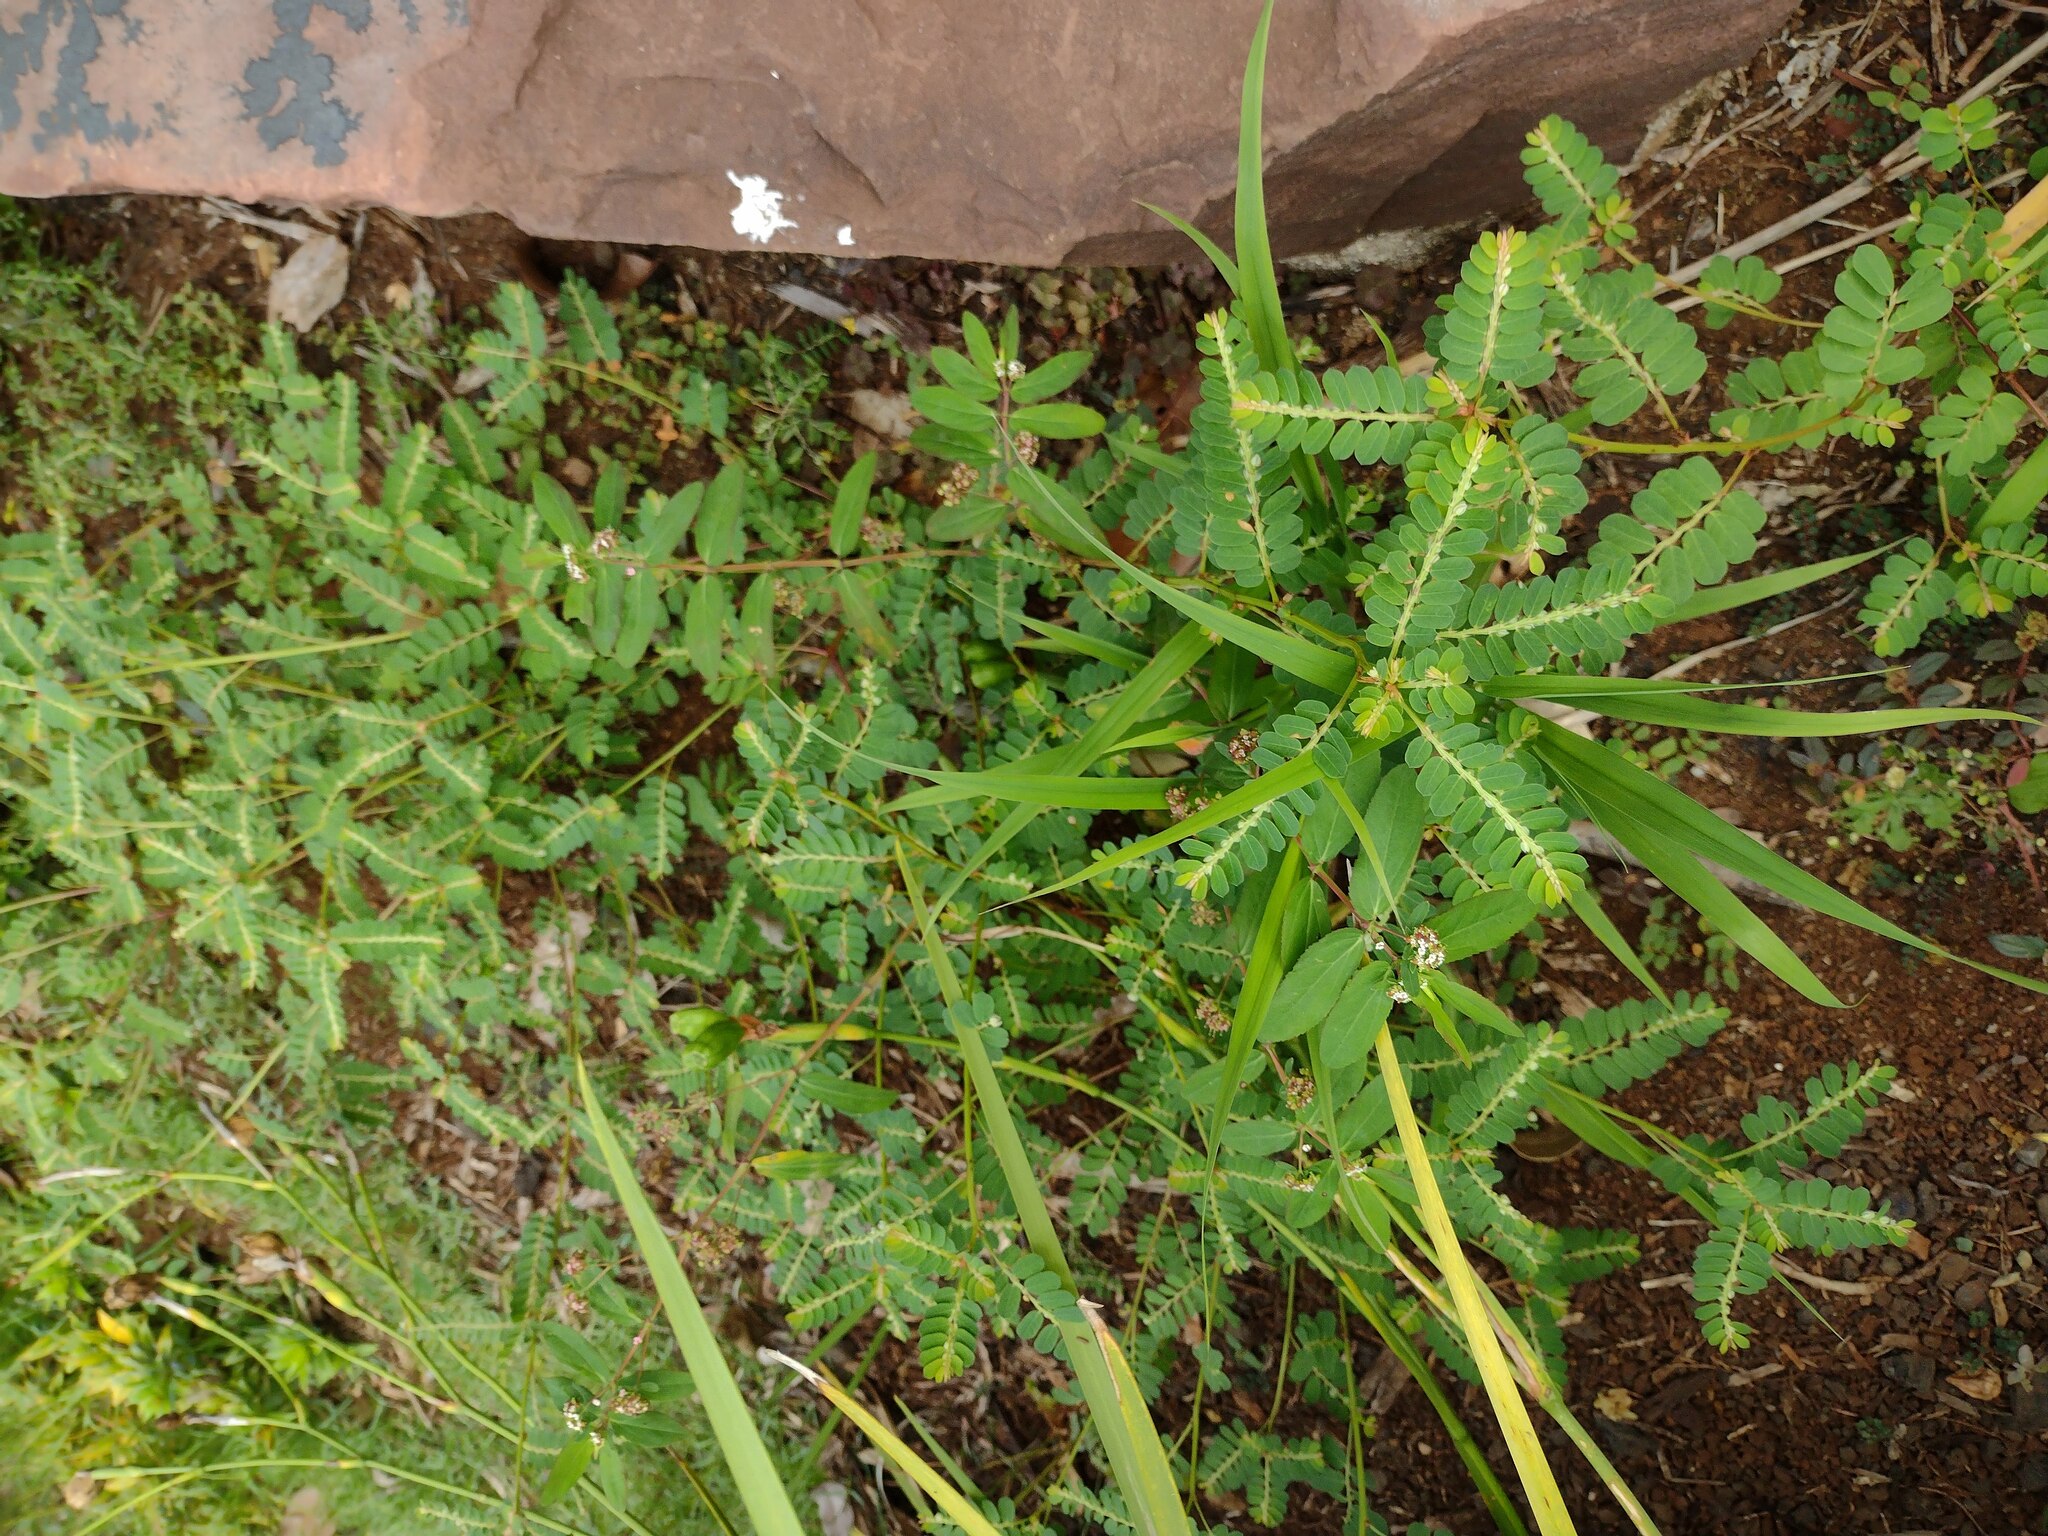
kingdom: Plantae
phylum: Tracheophyta
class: Magnoliopsida
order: Malpighiales
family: Phyllanthaceae
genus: Phyllanthus
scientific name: Phyllanthus leucanthus
